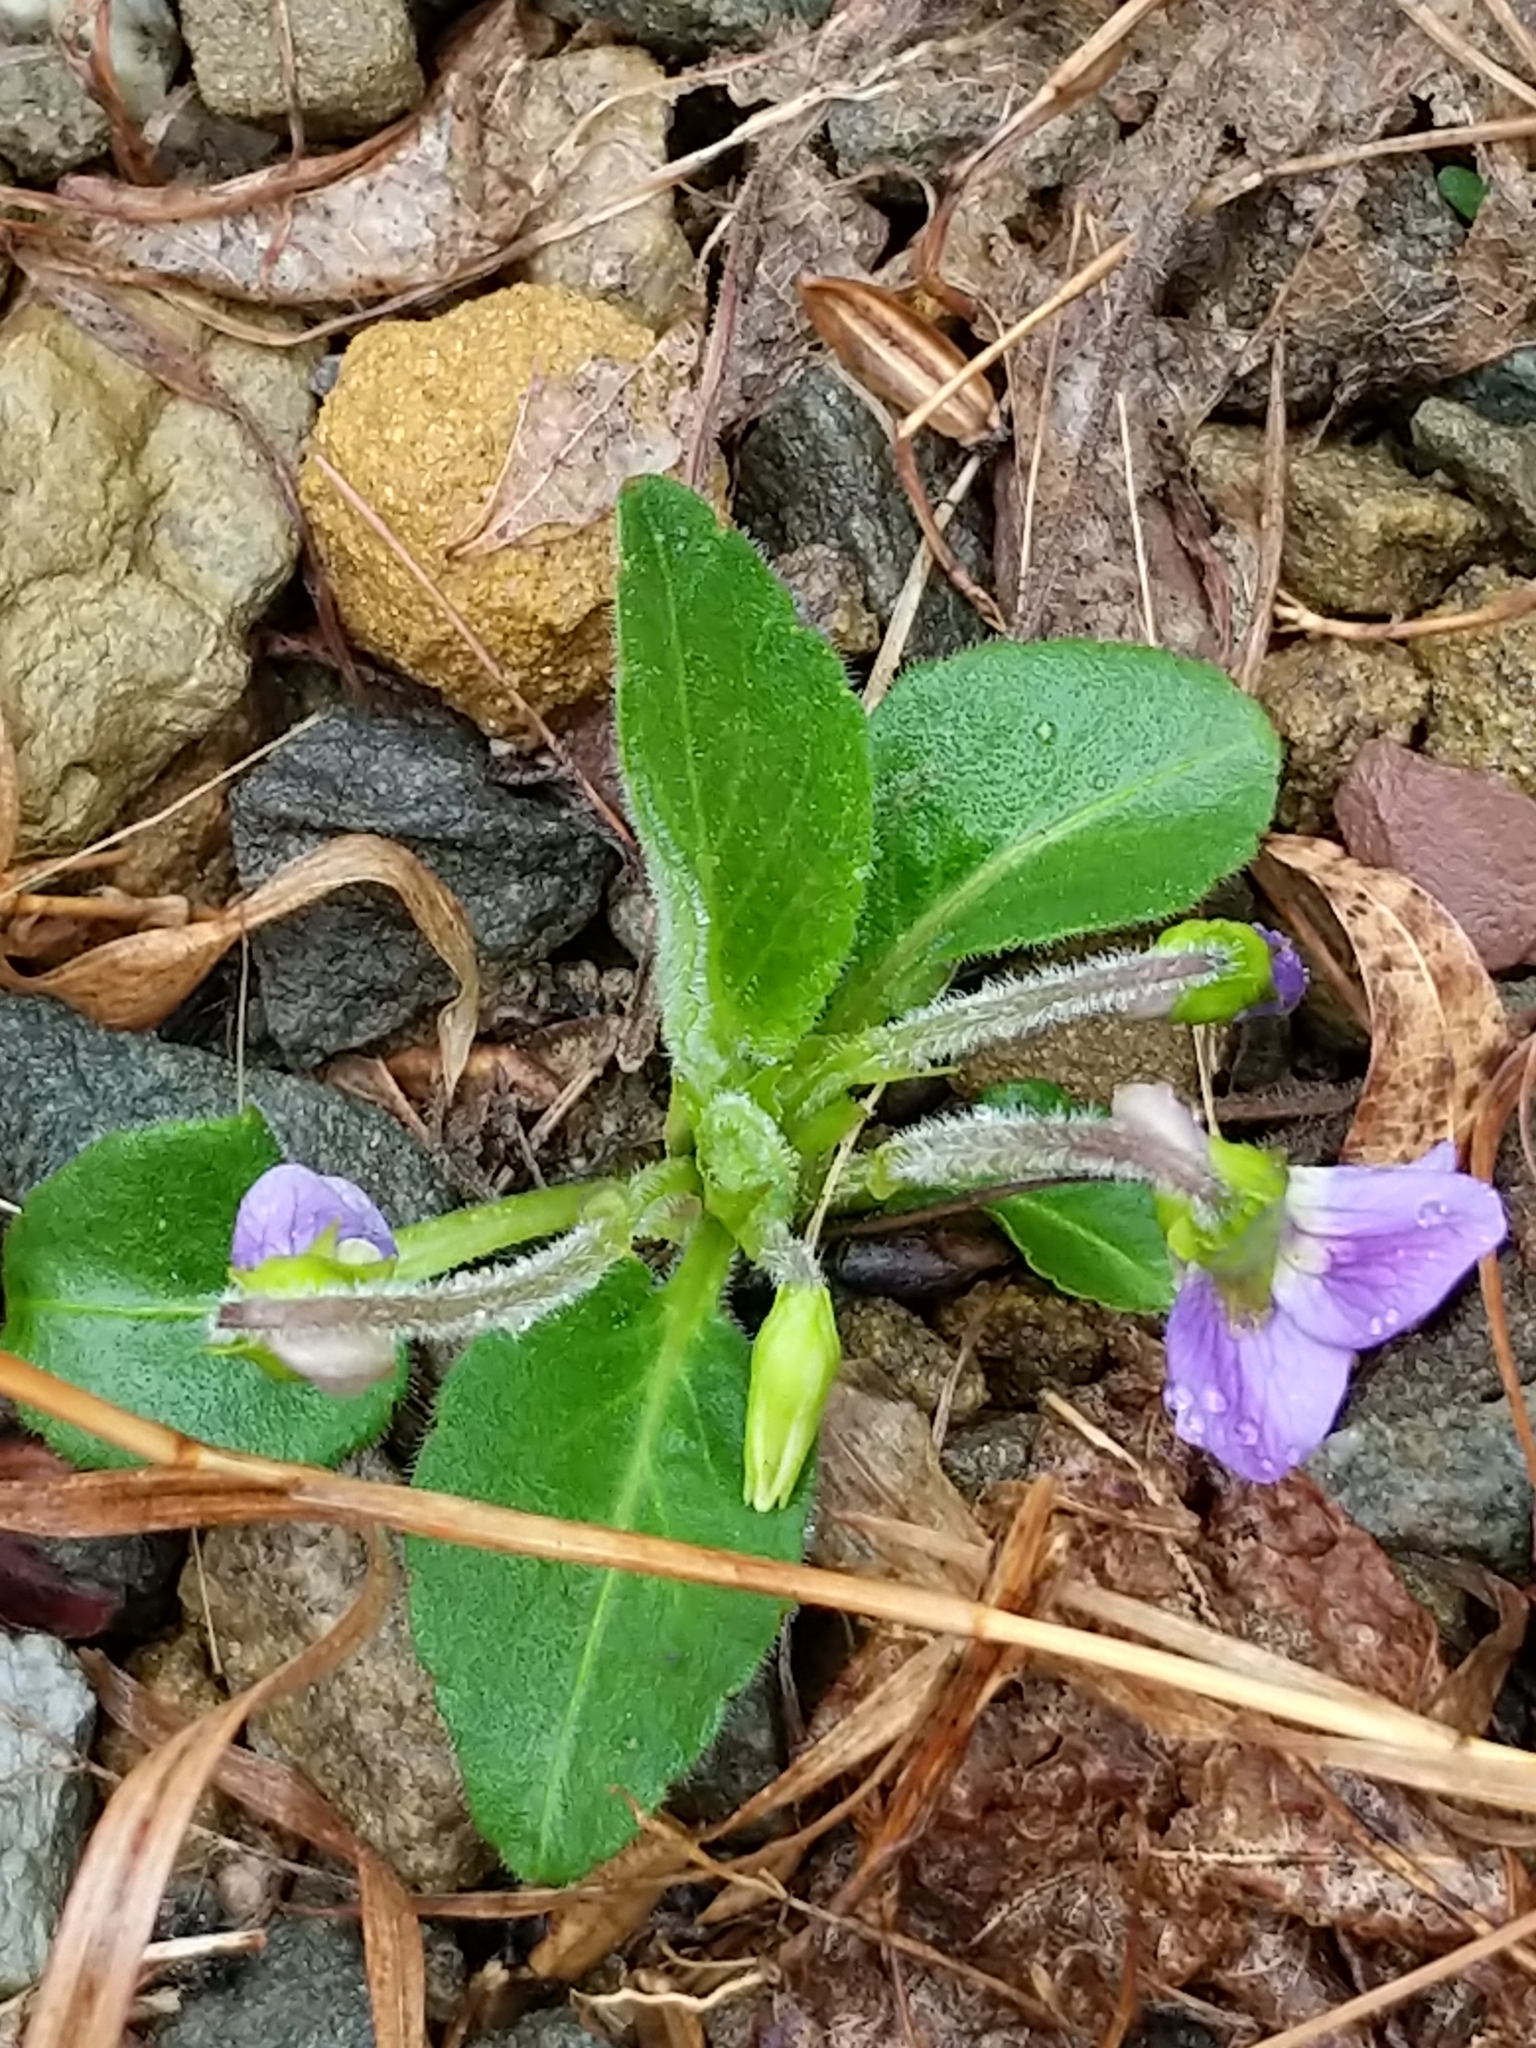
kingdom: Plantae
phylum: Tracheophyta
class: Magnoliopsida
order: Malpighiales
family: Violaceae
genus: Viola
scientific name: Viola fimbriatula
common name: Sand violet
